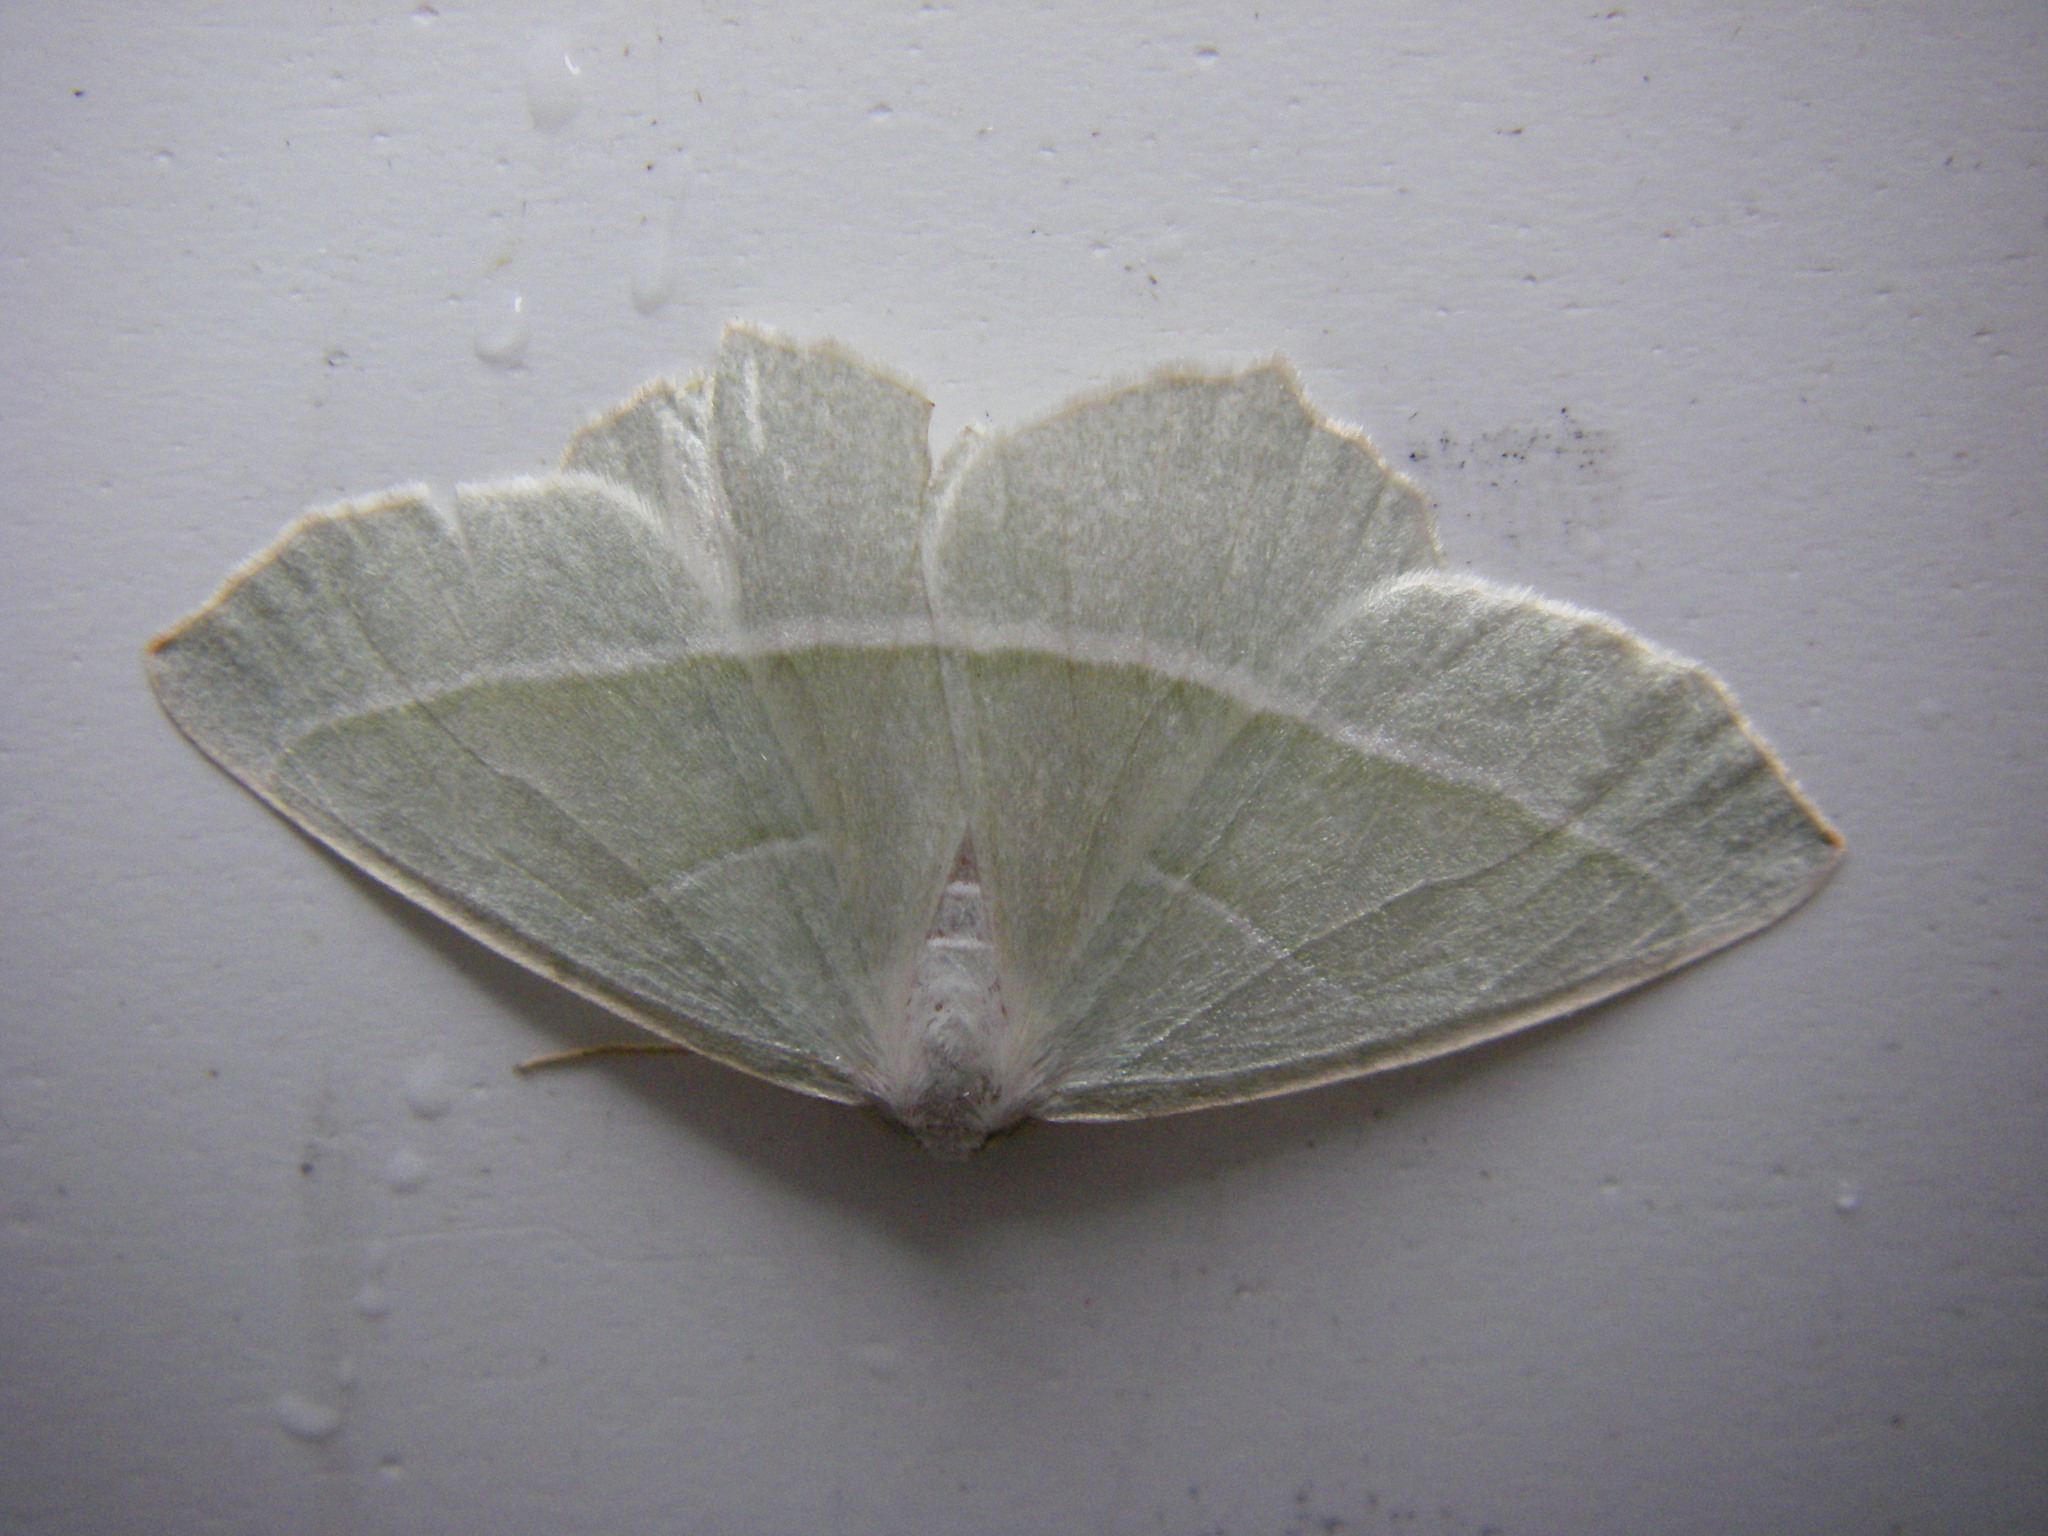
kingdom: Animalia
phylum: Arthropoda
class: Insecta
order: Lepidoptera
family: Geometridae
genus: Campaea
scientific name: Campaea margaritaria
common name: Light emerald
